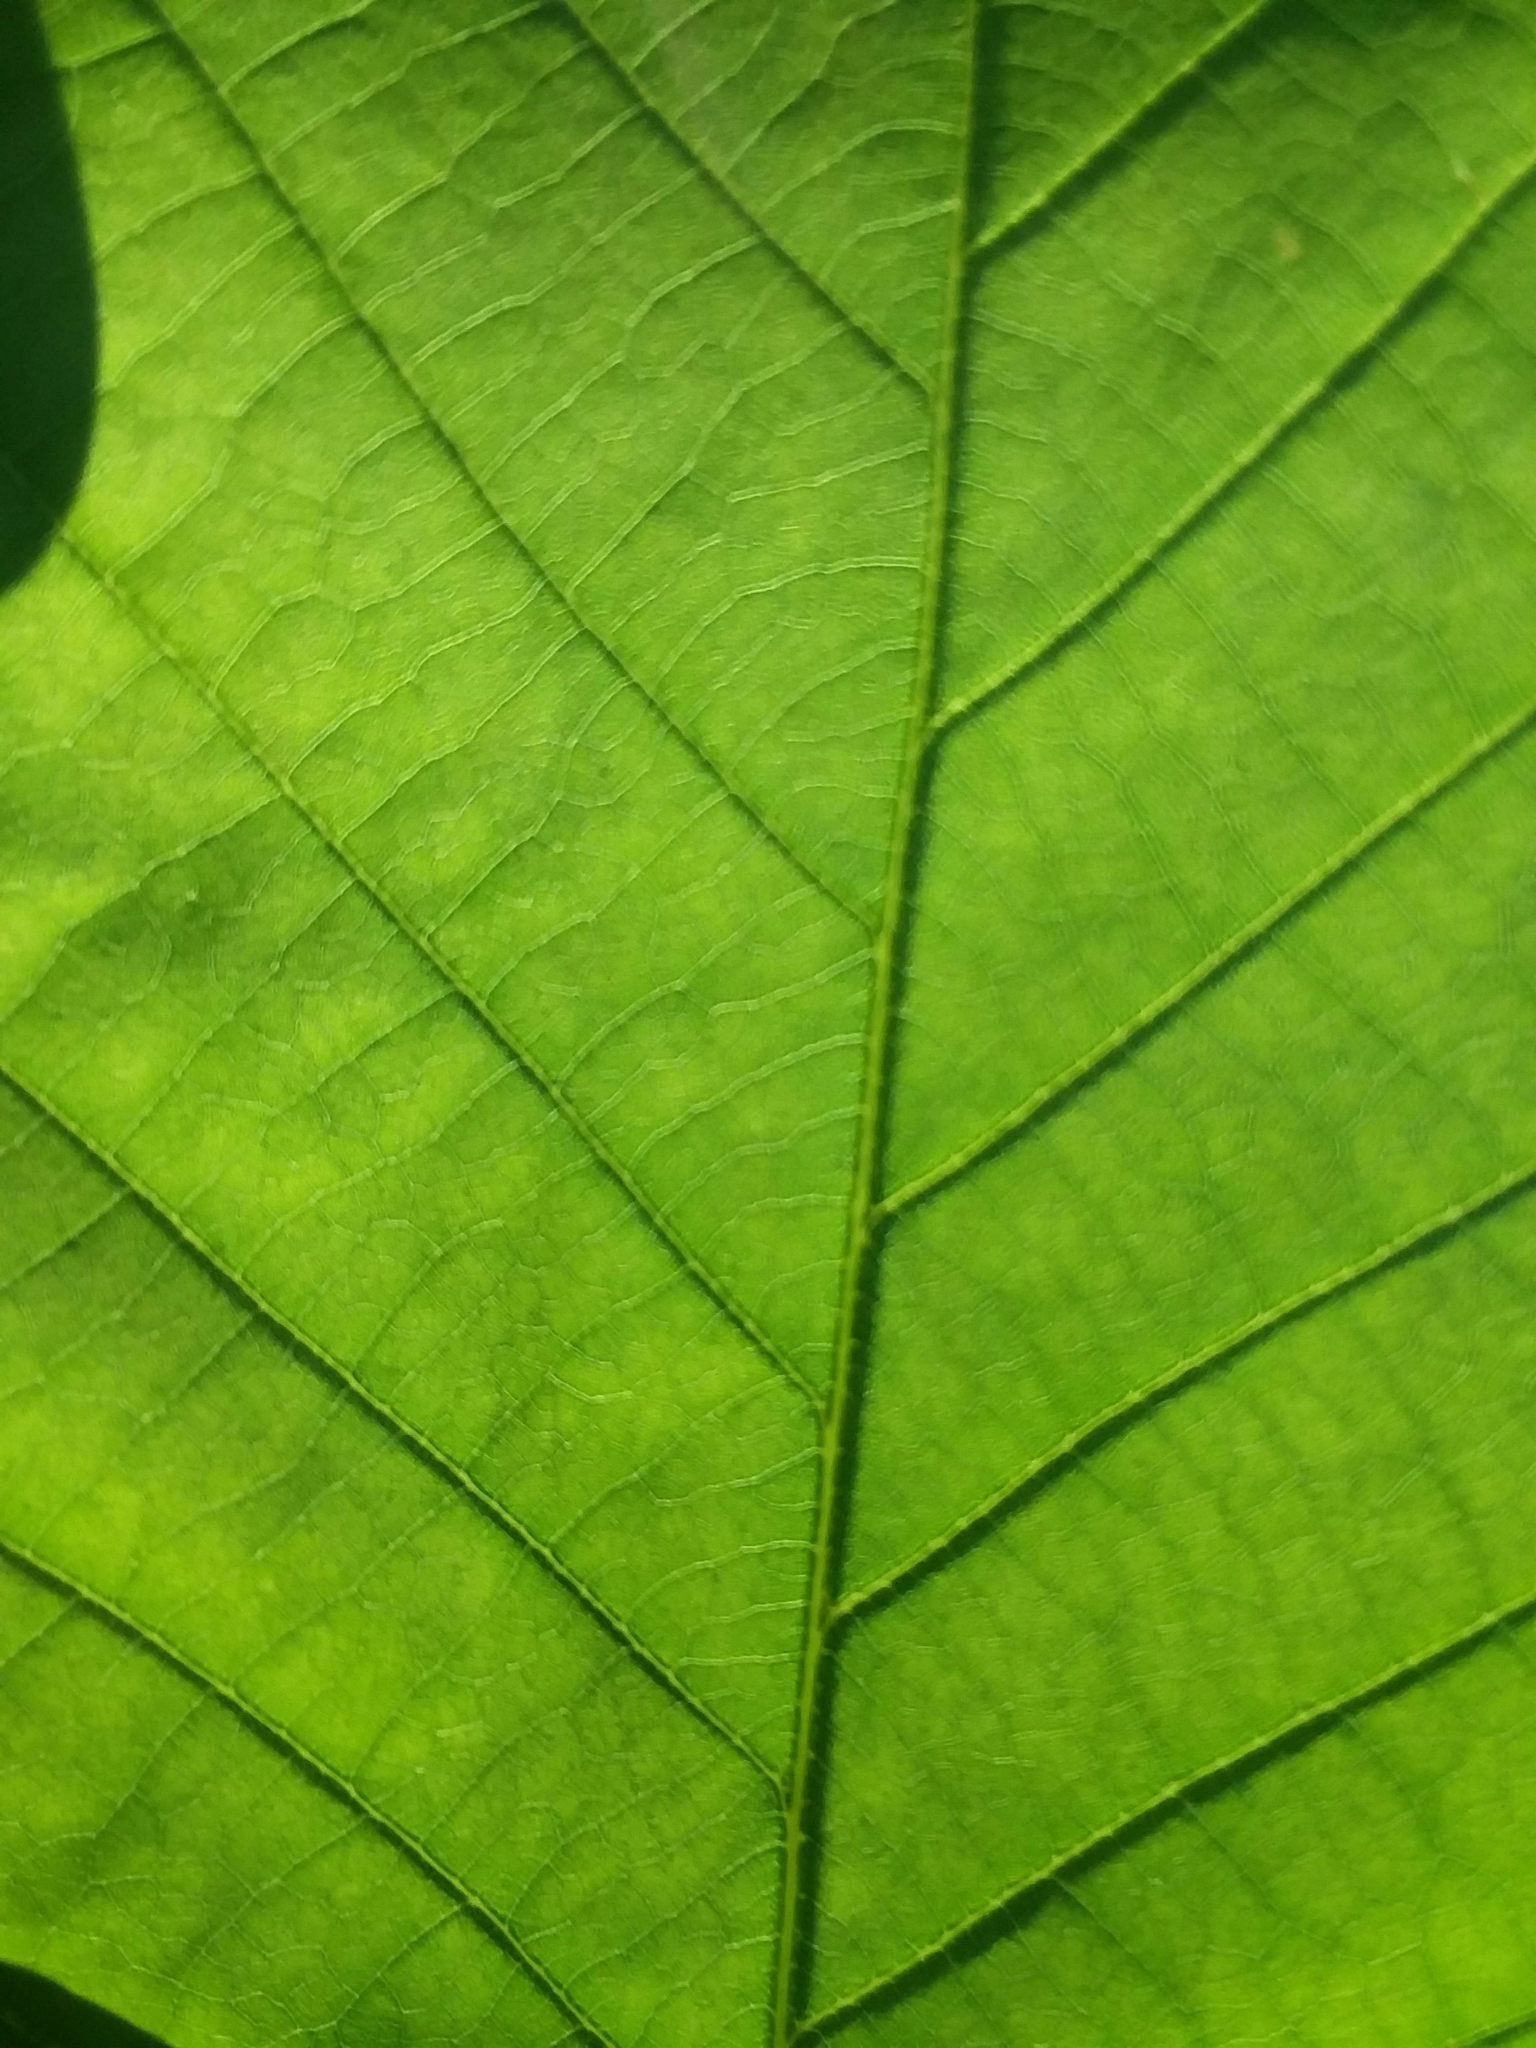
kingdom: Plantae
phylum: Tracheophyta
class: Magnoliopsida
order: Fagales
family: Fagaceae
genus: Quercus
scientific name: Quercus michauxii
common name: Swamp chestnut oak
